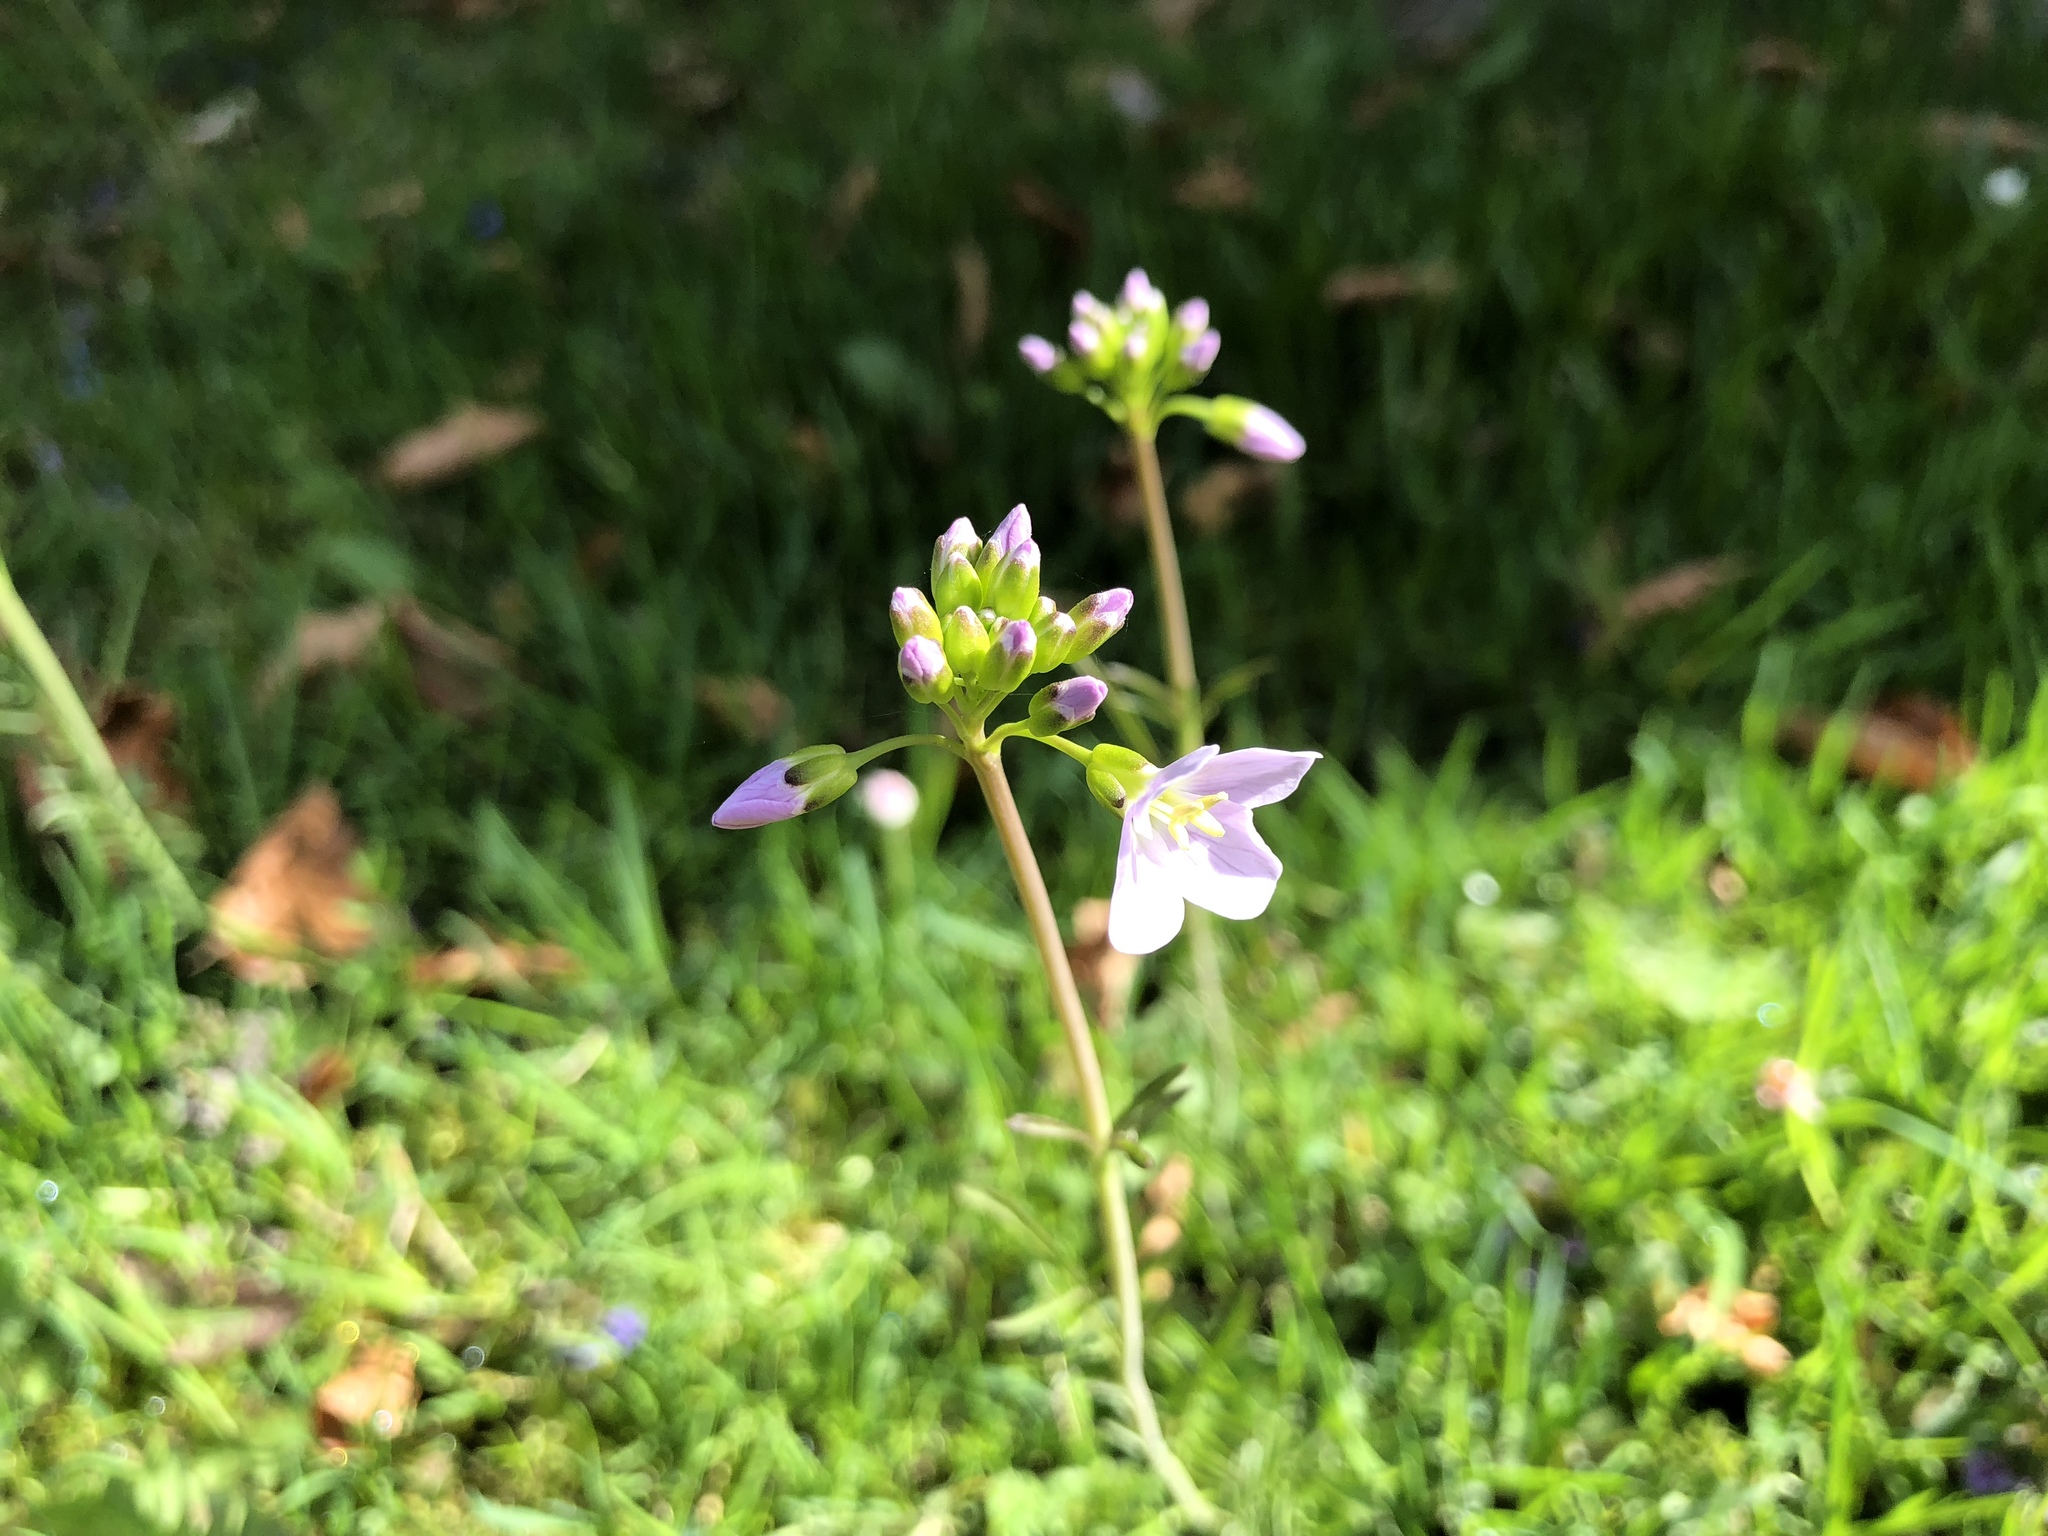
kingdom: Plantae
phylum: Tracheophyta
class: Magnoliopsida
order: Brassicales
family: Brassicaceae
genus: Cardamine
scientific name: Cardamine pratensis
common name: Cuckoo flower
